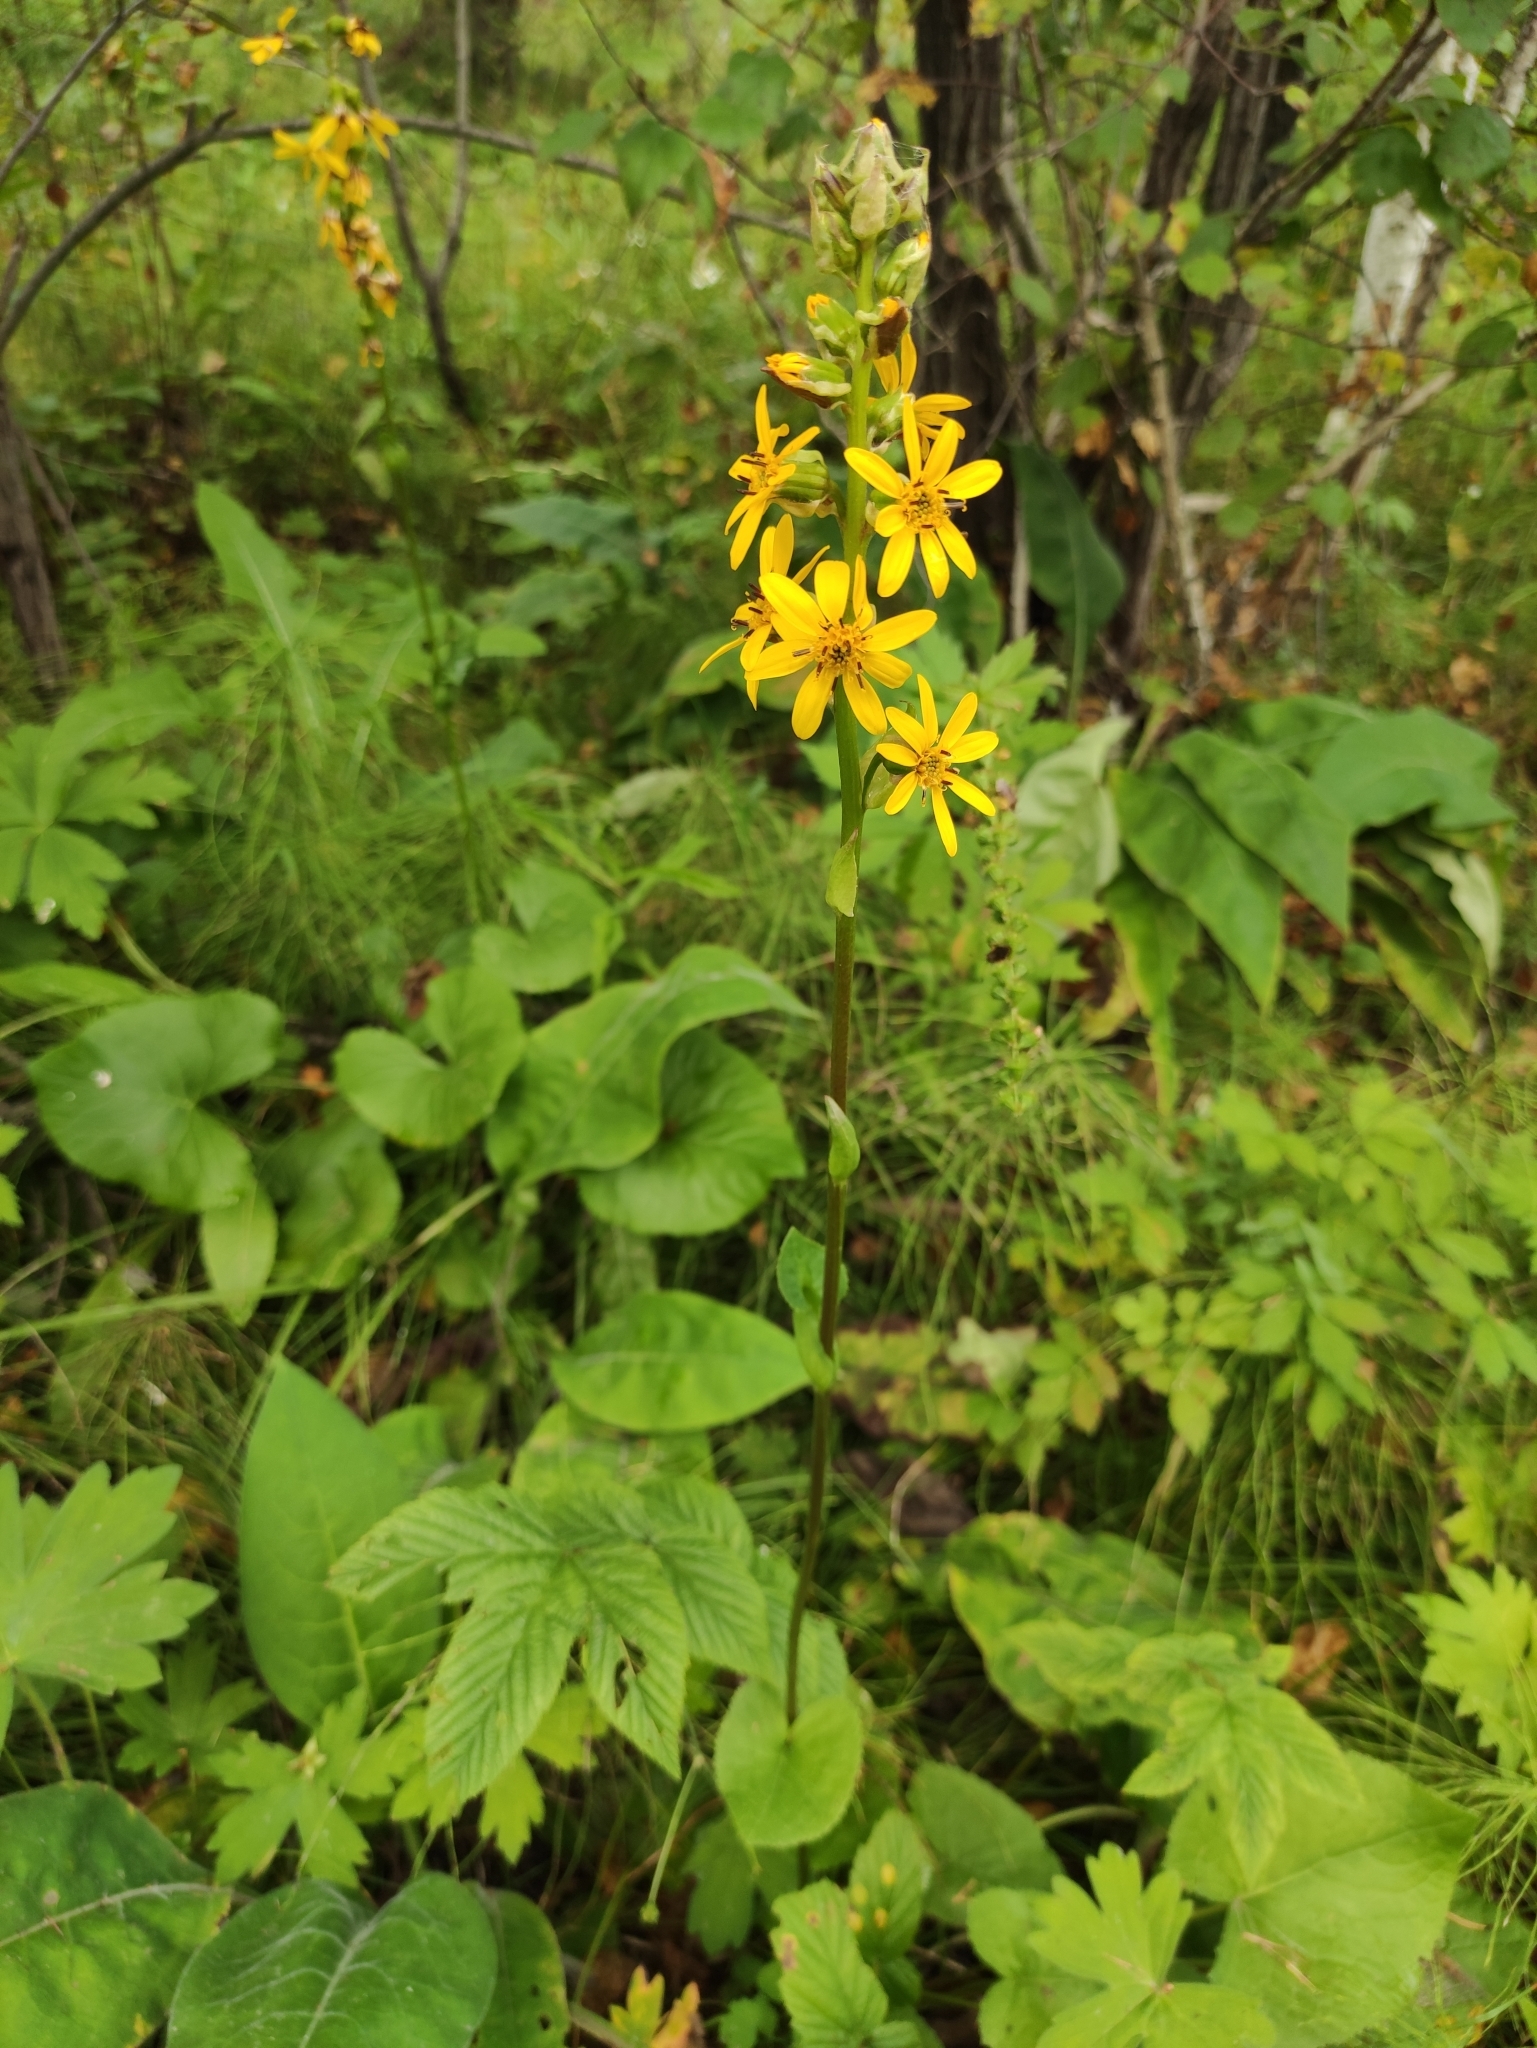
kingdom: Plantae
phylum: Tracheophyta
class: Magnoliopsida
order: Asterales
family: Asteraceae
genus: Ligularia
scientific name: Ligularia sibirica
